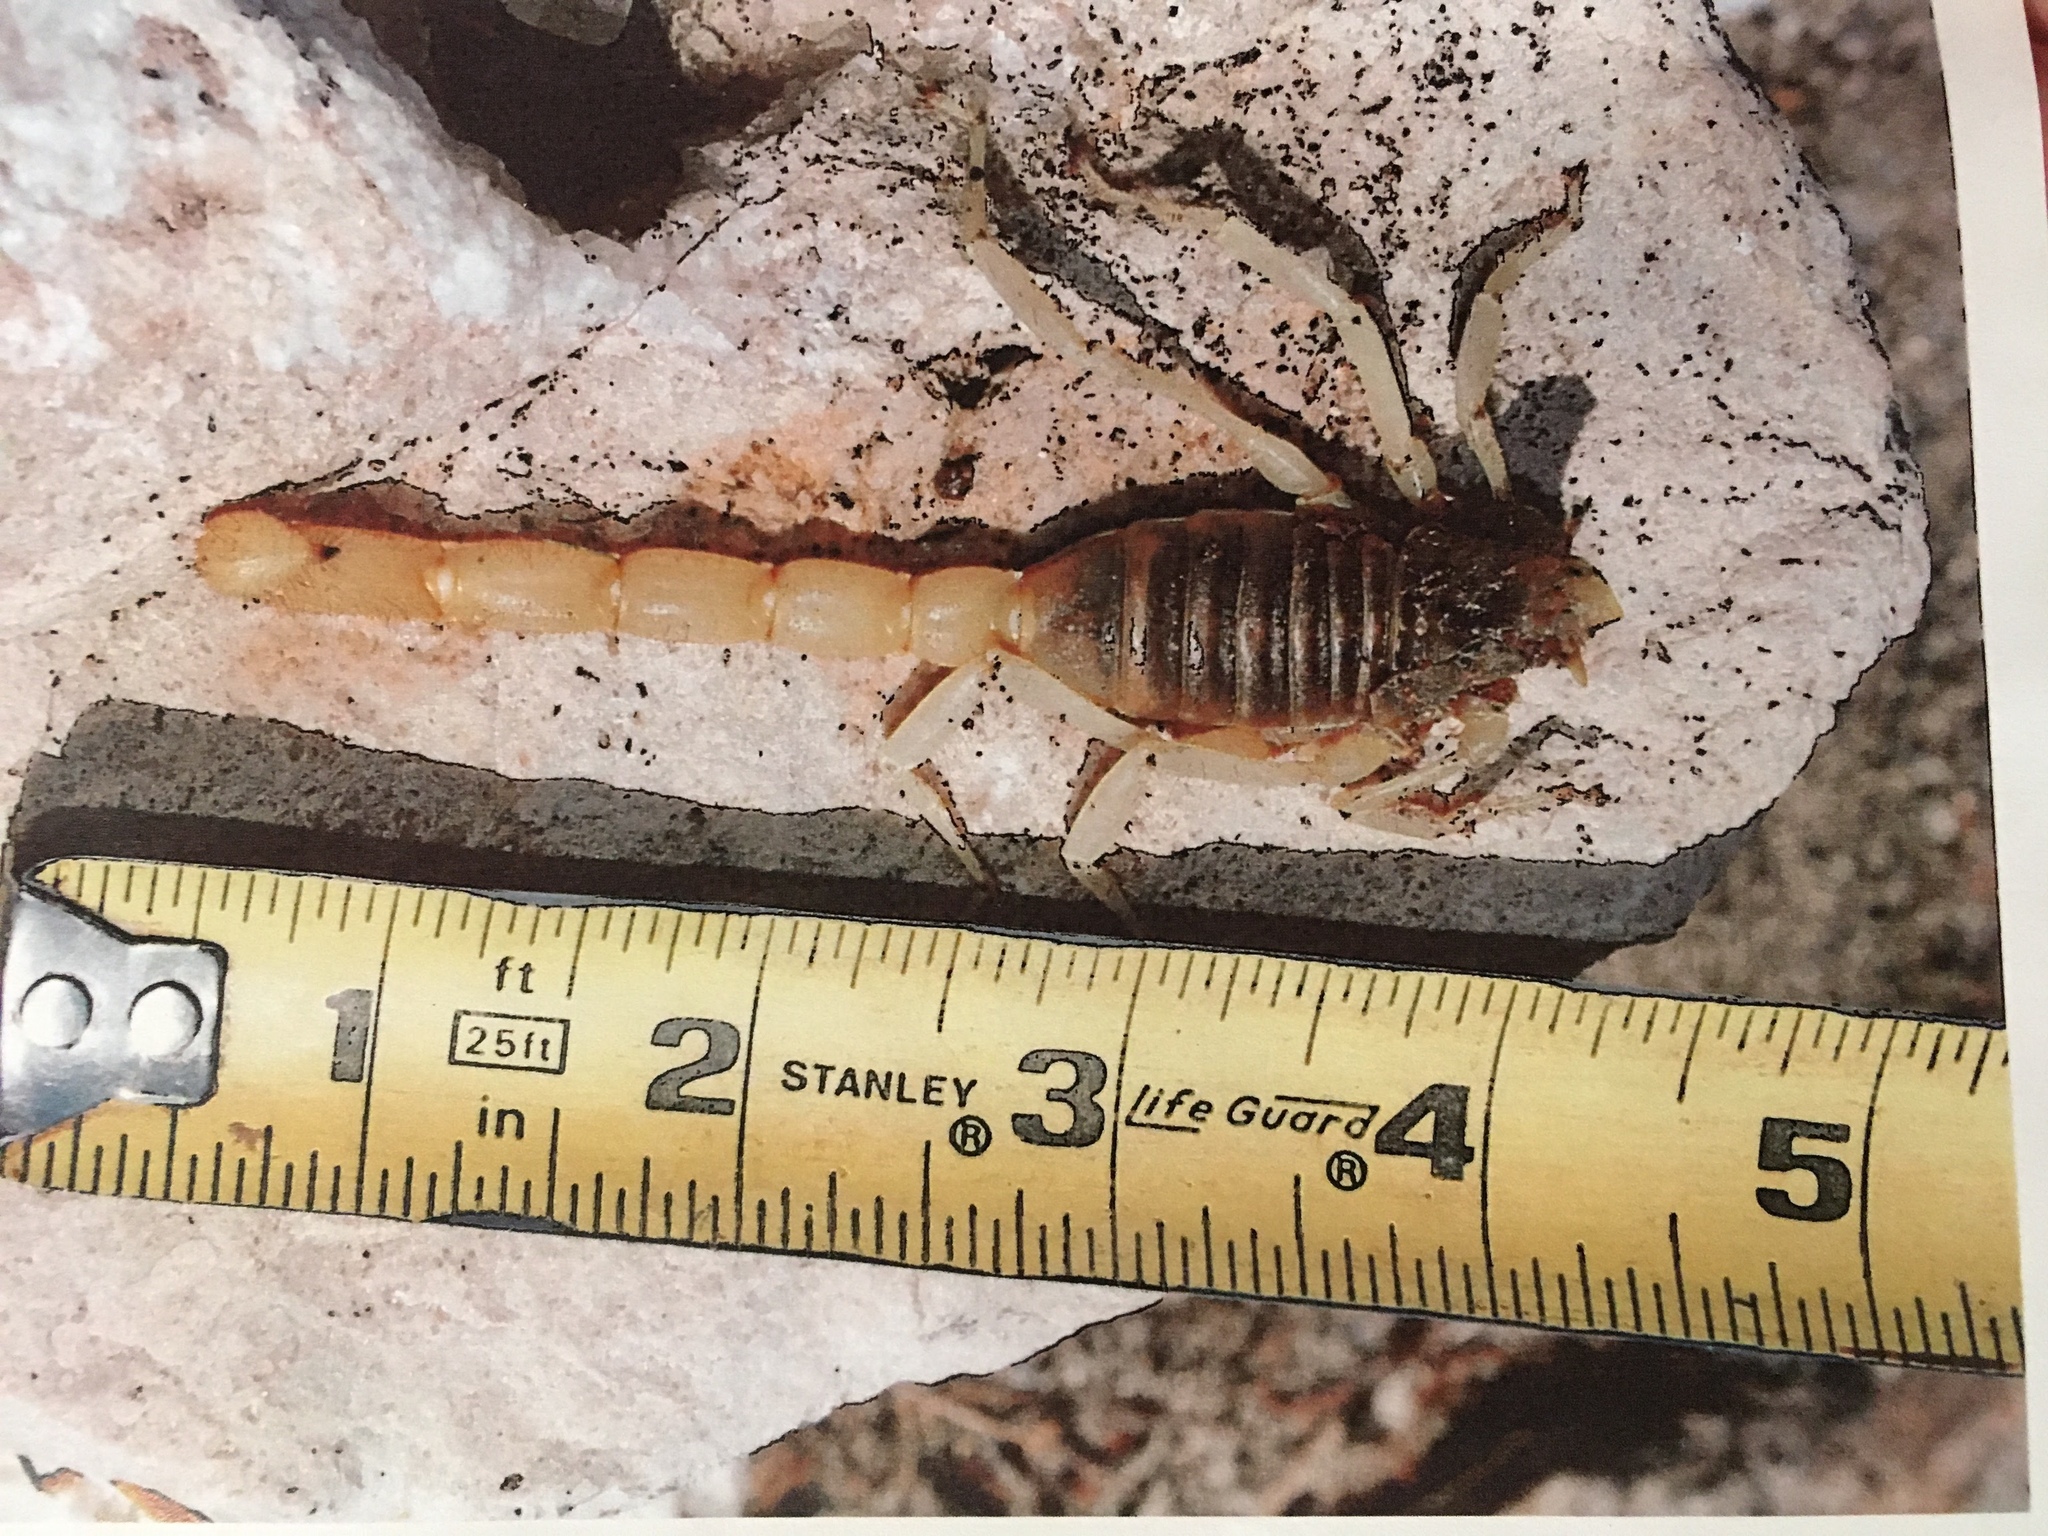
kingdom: Animalia
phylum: Arthropoda
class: Arachnida
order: Scorpiones
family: Hadruridae
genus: Hadrurus
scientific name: Hadrurus arizonensis
